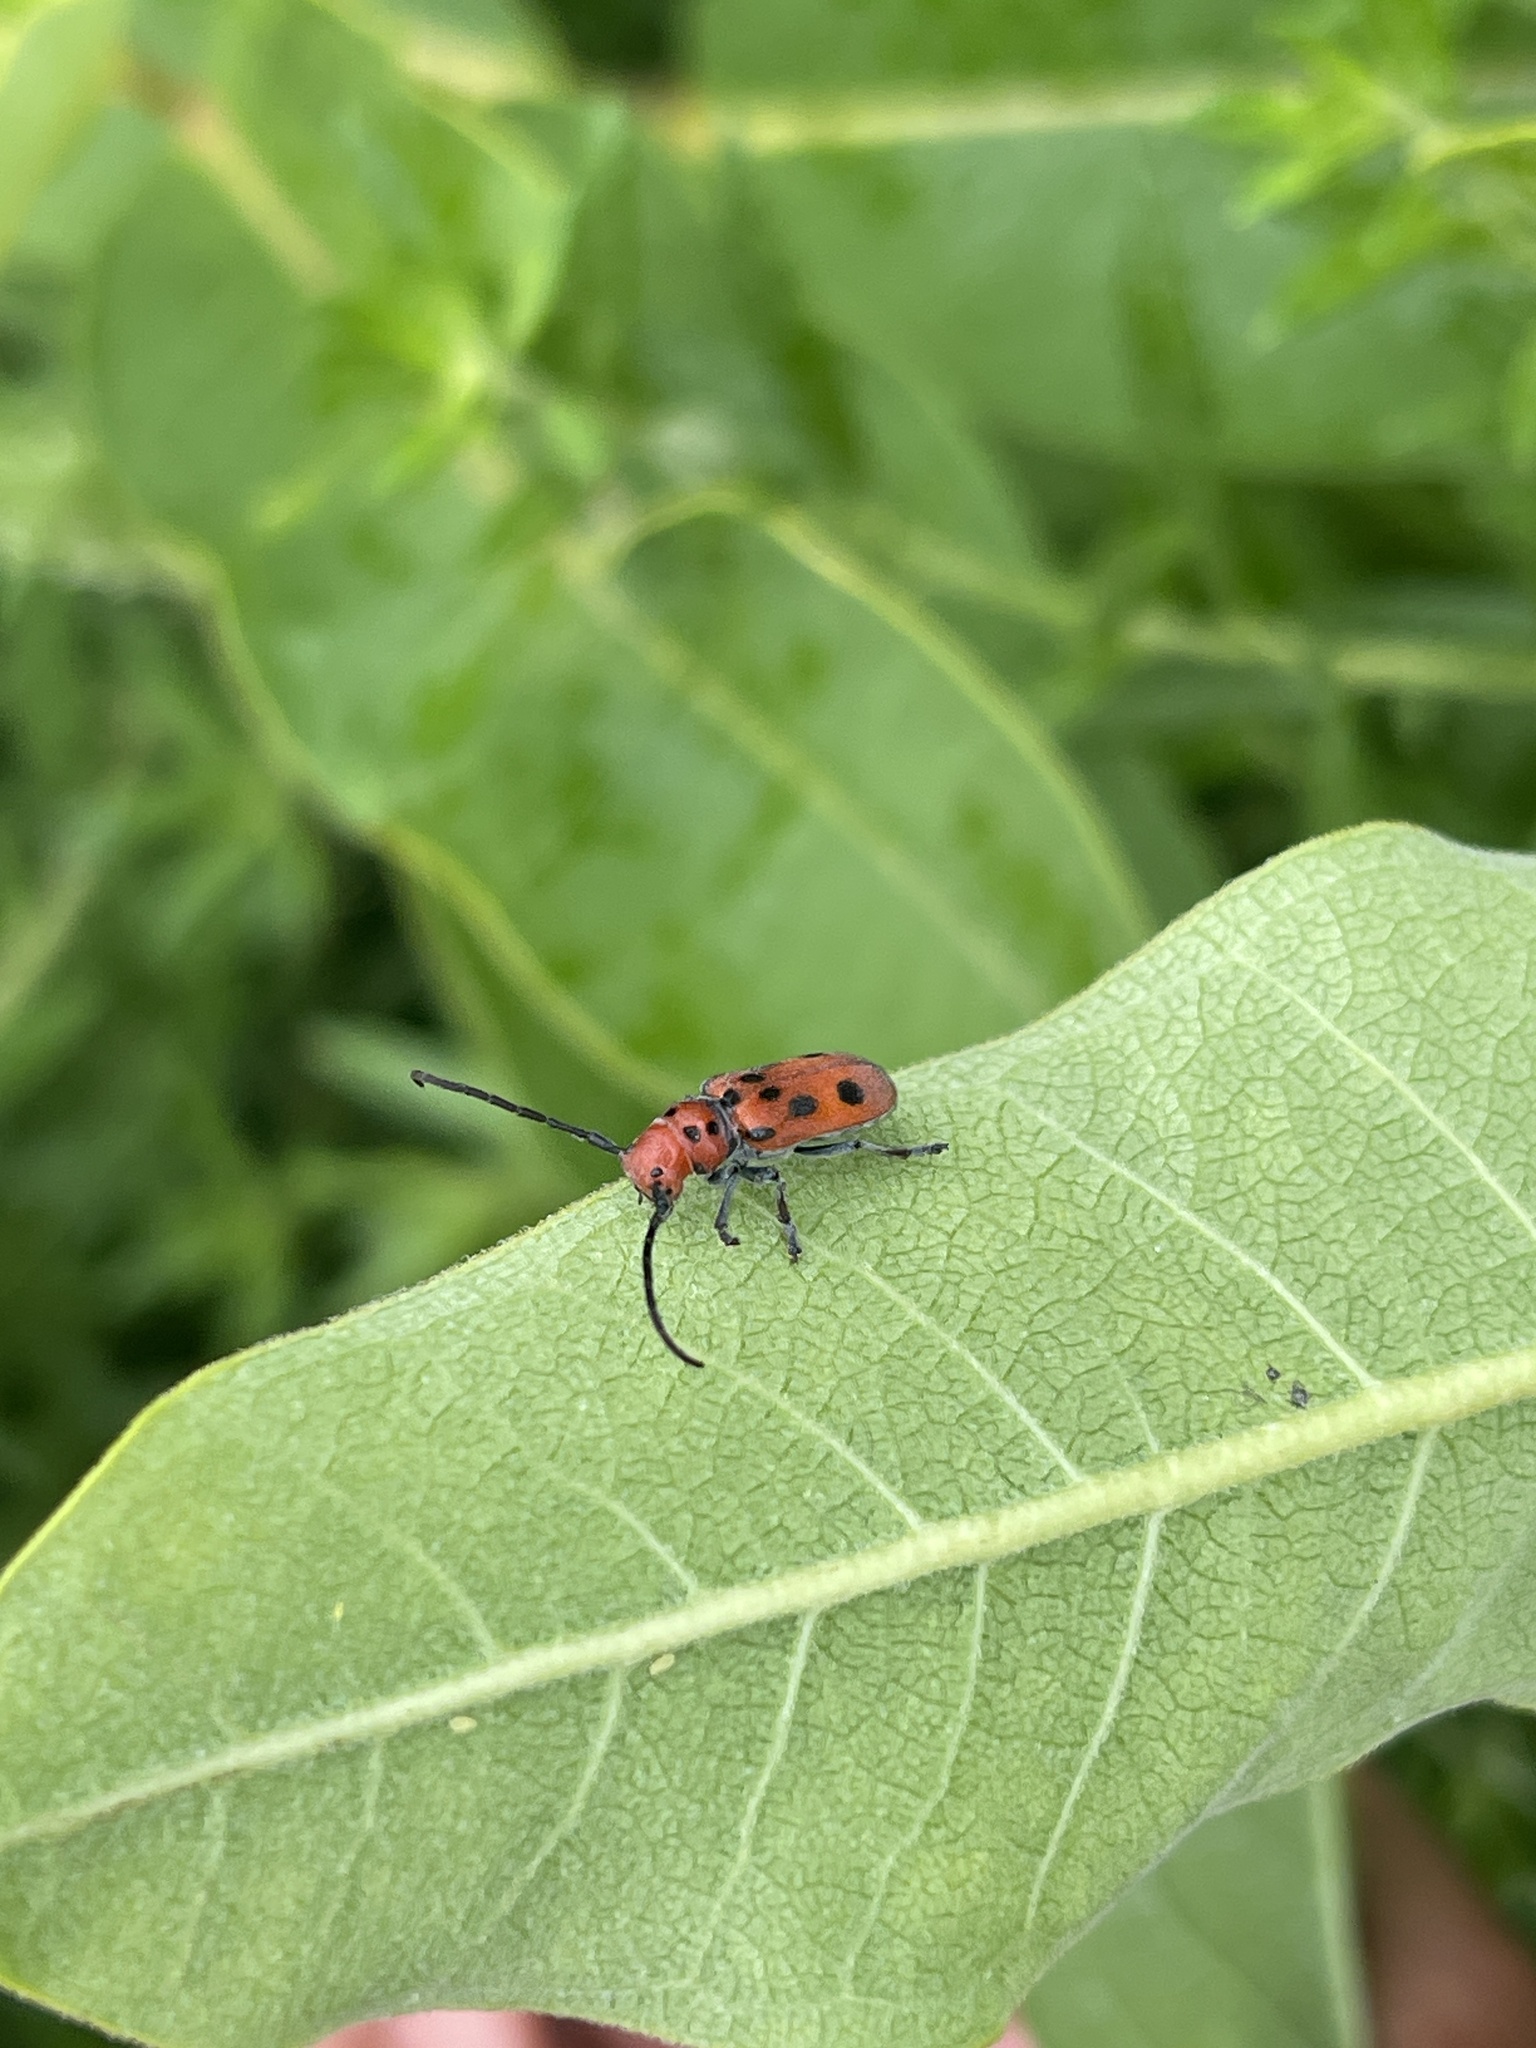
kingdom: Animalia
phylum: Arthropoda
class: Insecta
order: Coleoptera
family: Cerambycidae
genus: Tetraopes
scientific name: Tetraopes tetrophthalmus
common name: Red milkweed beetle
